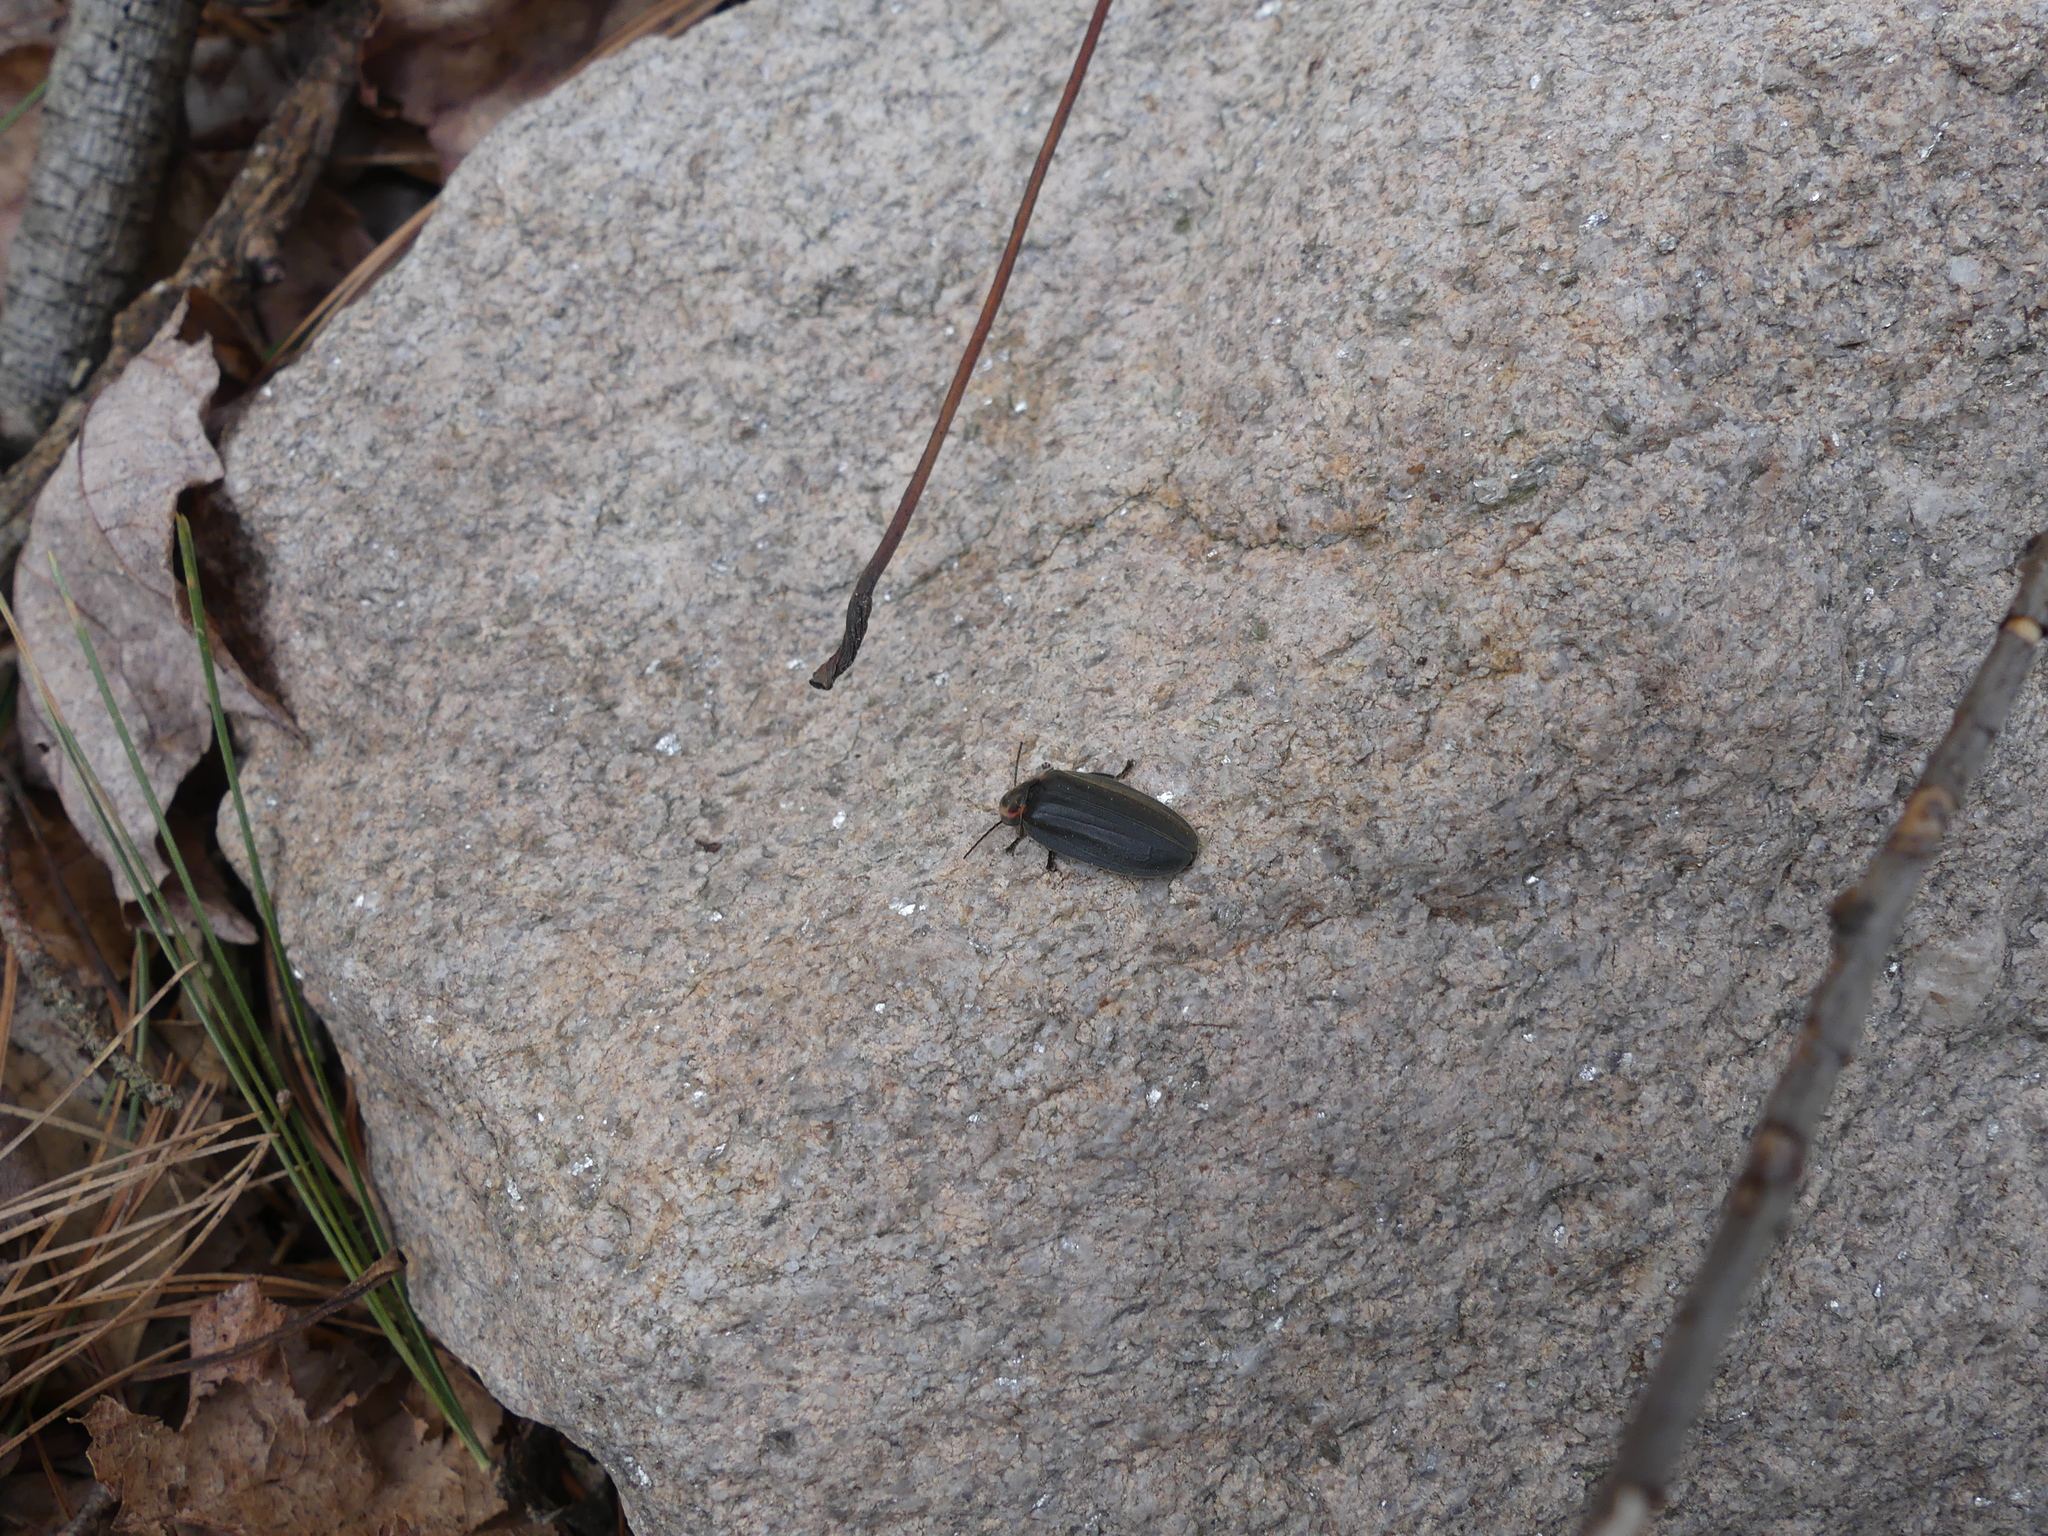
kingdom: Animalia
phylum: Arthropoda
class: Insecta
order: Coleoptera
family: Lampyridae
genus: Photinus
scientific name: Photinus corrusca
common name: Winter firefly
